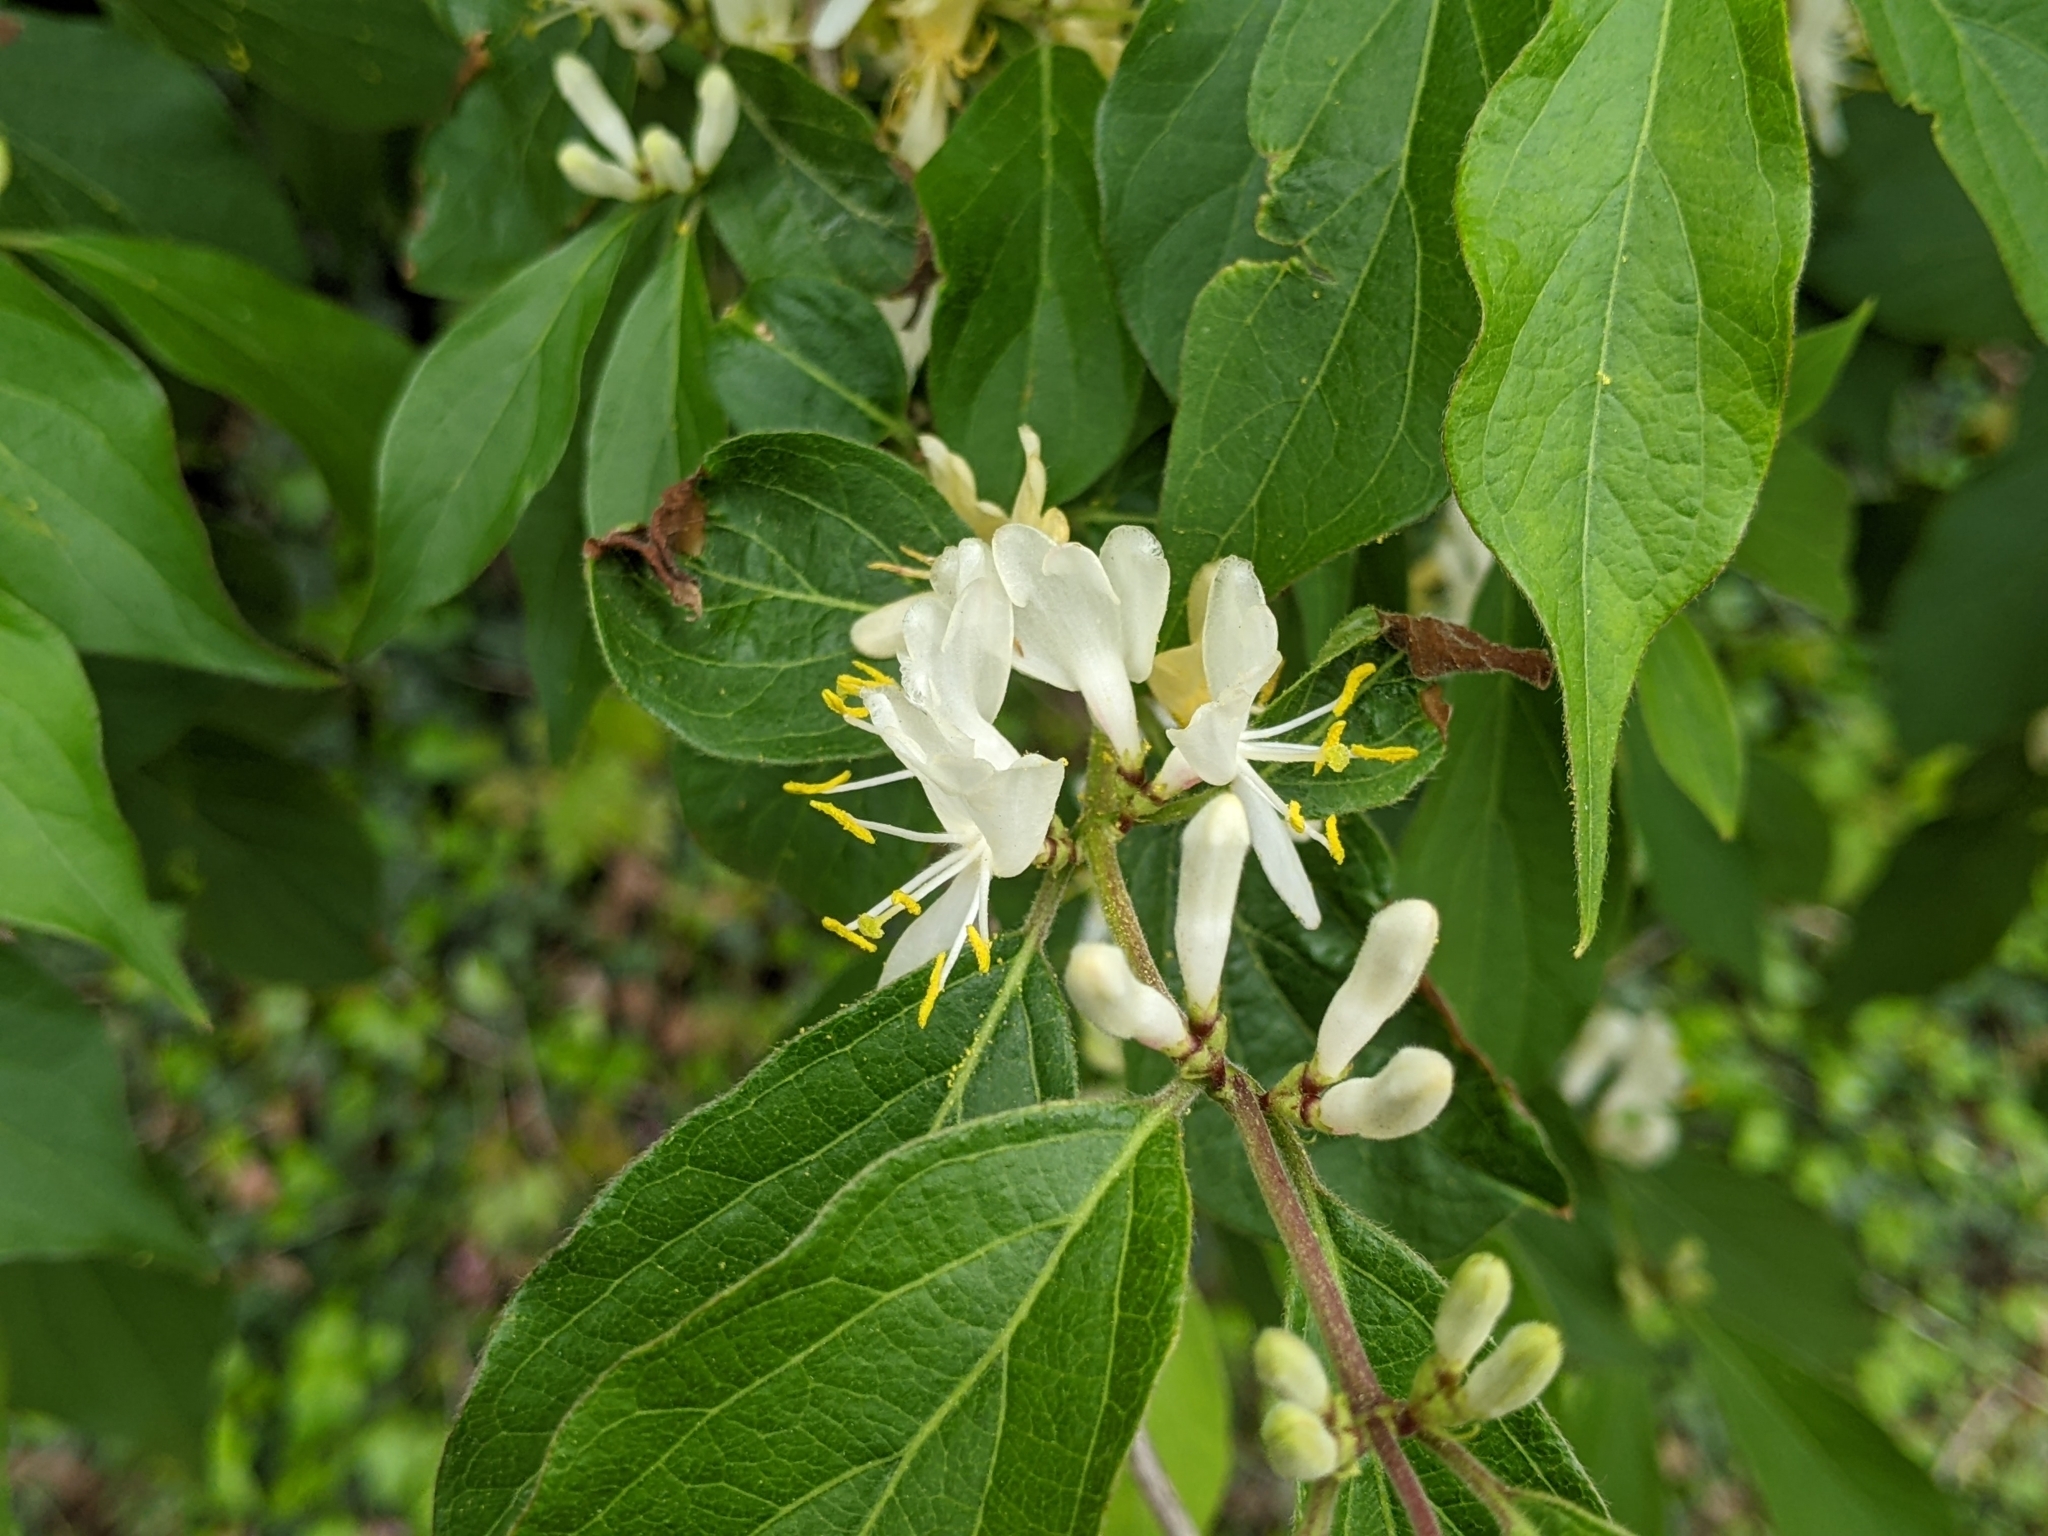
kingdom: Plantae
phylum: Tracheophyta
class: Magnoliopsida
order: Dipsacales
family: Caprifoliaceae
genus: Lonicera
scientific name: Lonicera maackii
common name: Amur honeysuckle
